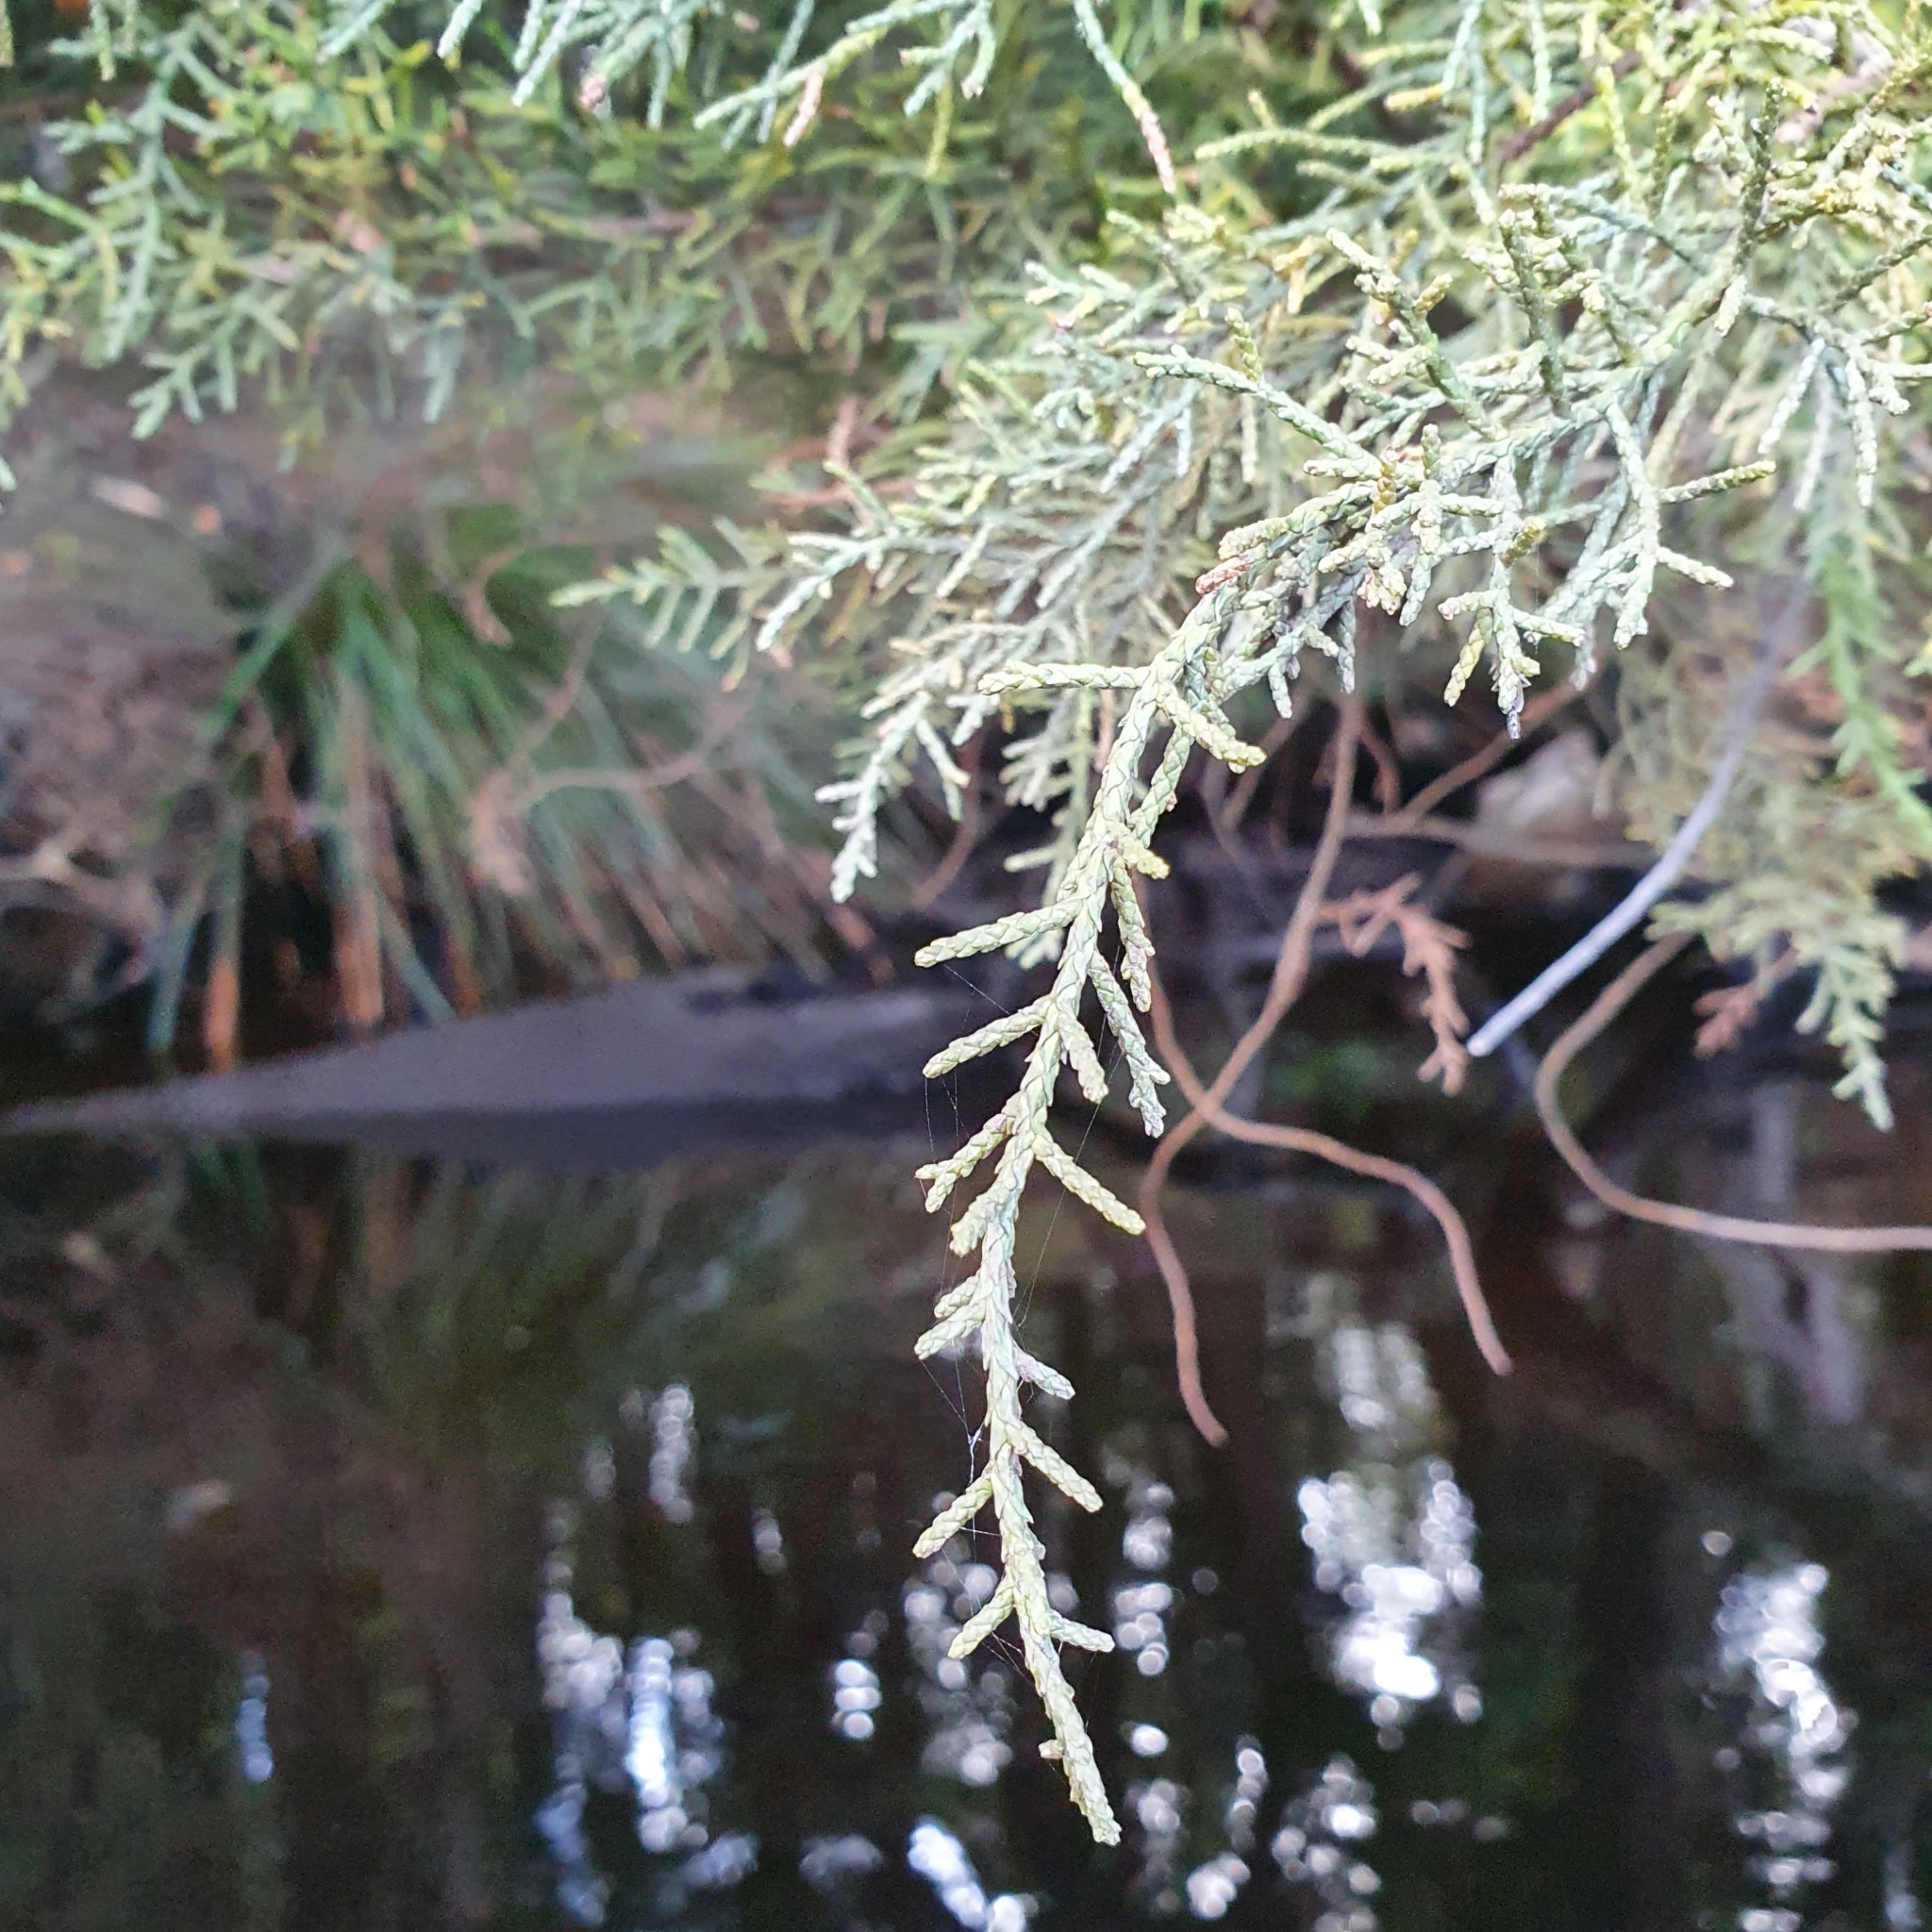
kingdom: Plantae
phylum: Tracheophyta
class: Pinopsida
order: Pinales
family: Podocarpaceae
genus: Lagarostrobos
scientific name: Lagarostrobos franklinii
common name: Huon pine
